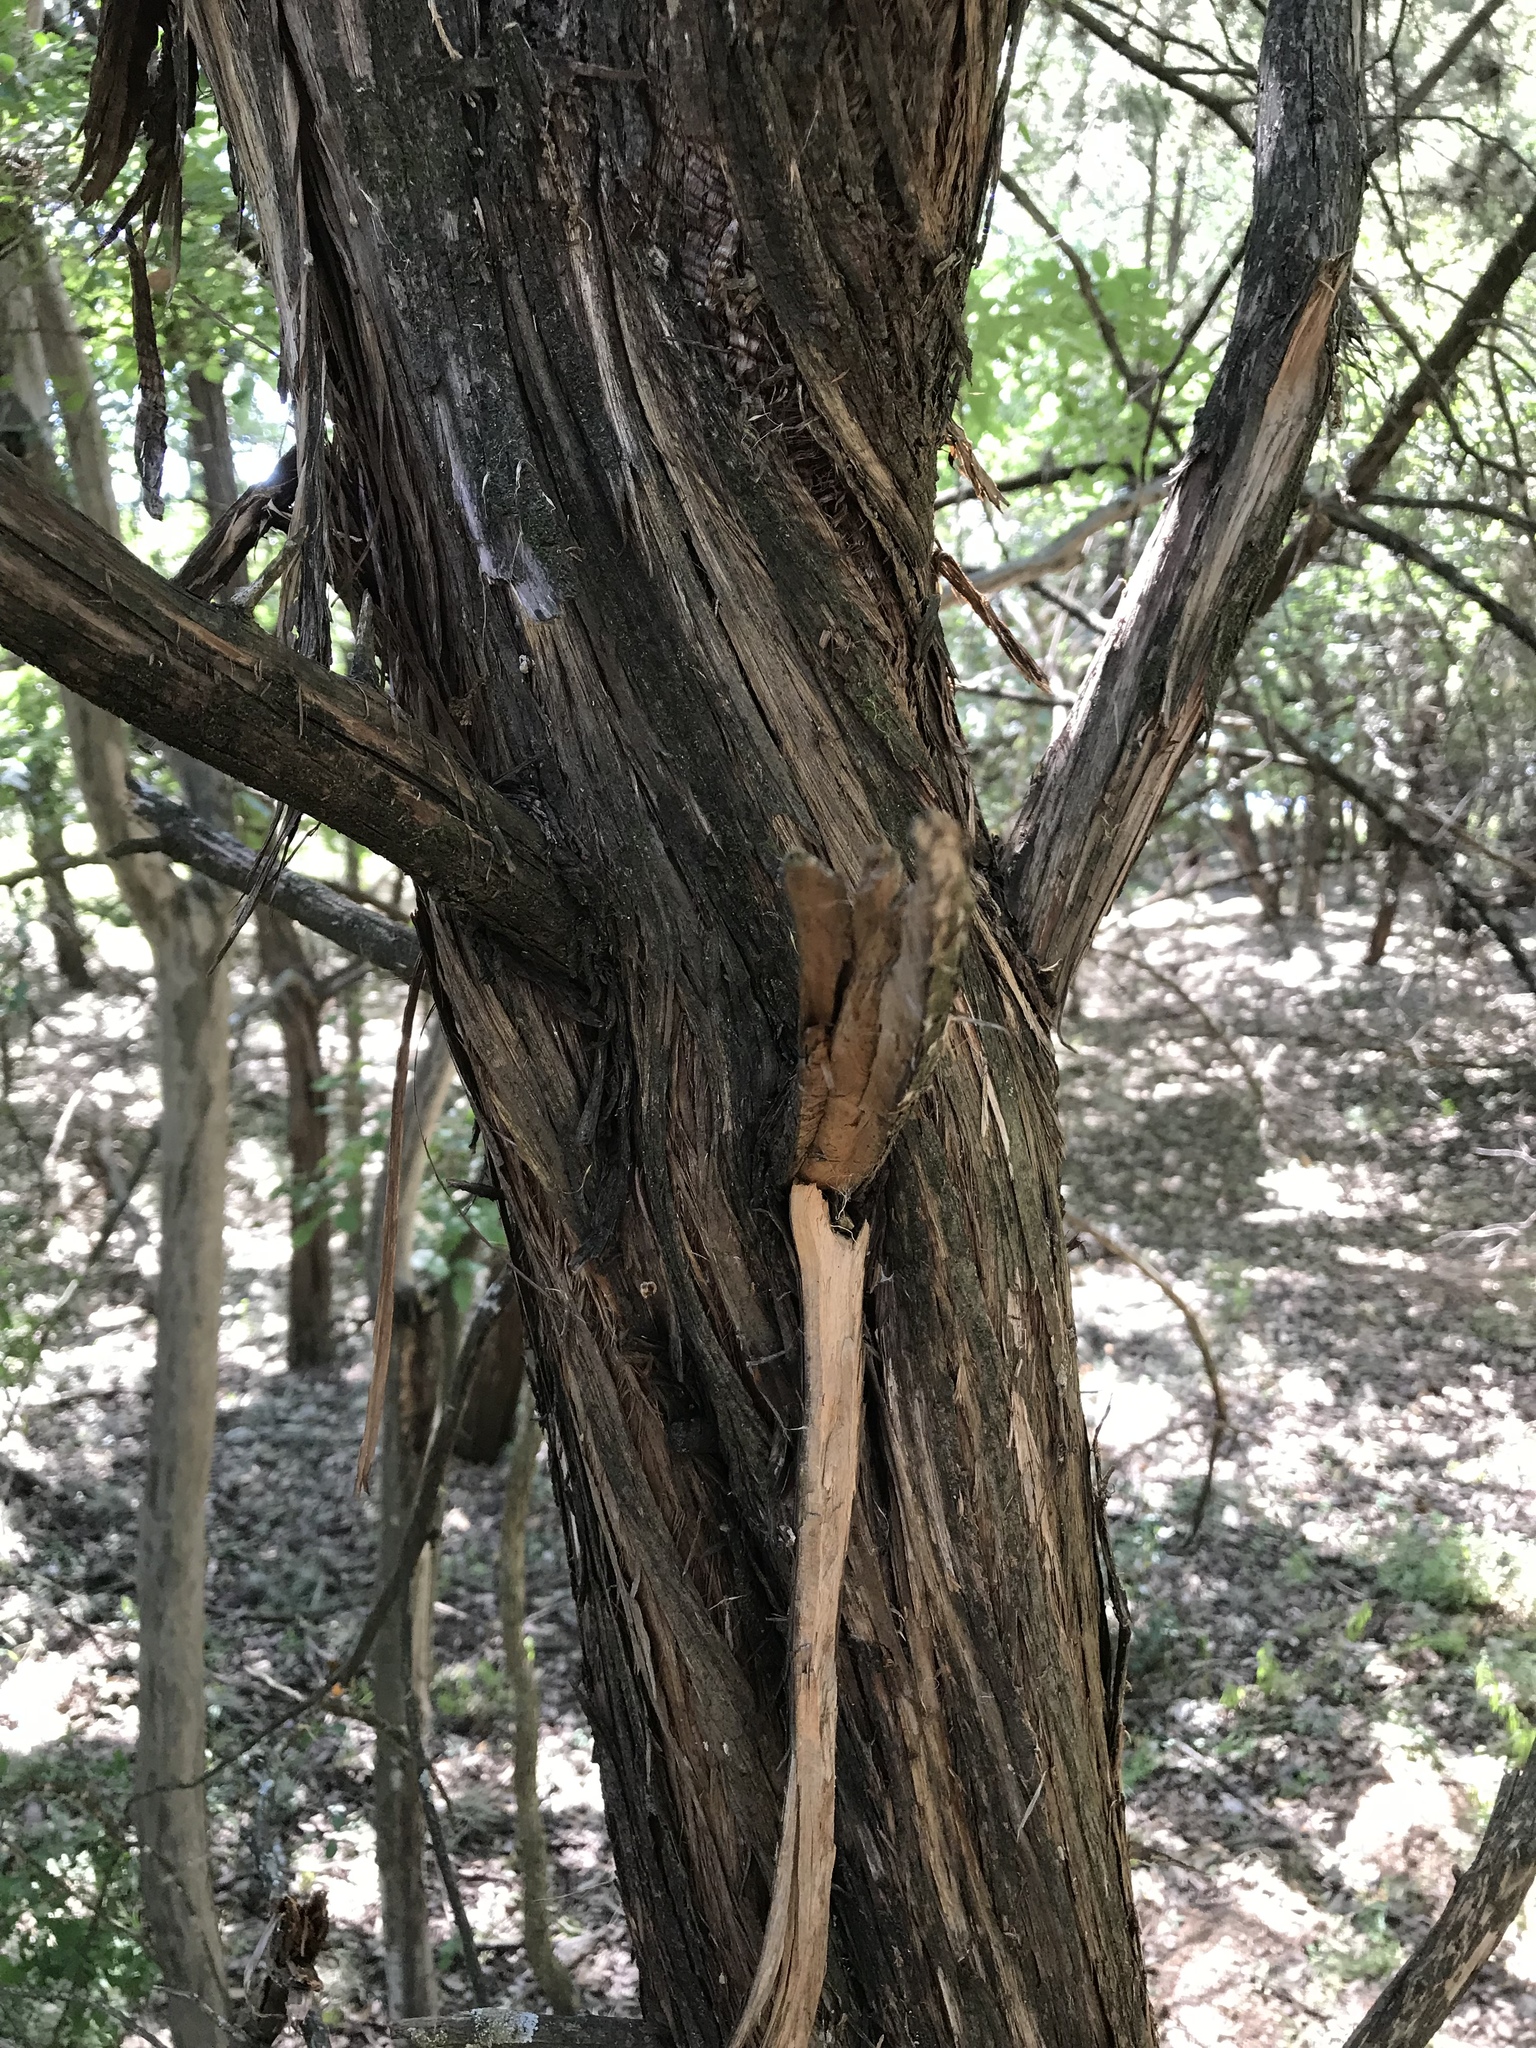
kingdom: Plantae
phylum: Tracheophyta
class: Pinopsida
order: Pinales
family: Cupressaceae
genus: Juniperus
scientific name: Juniperus ashei
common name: Mexican juniper
